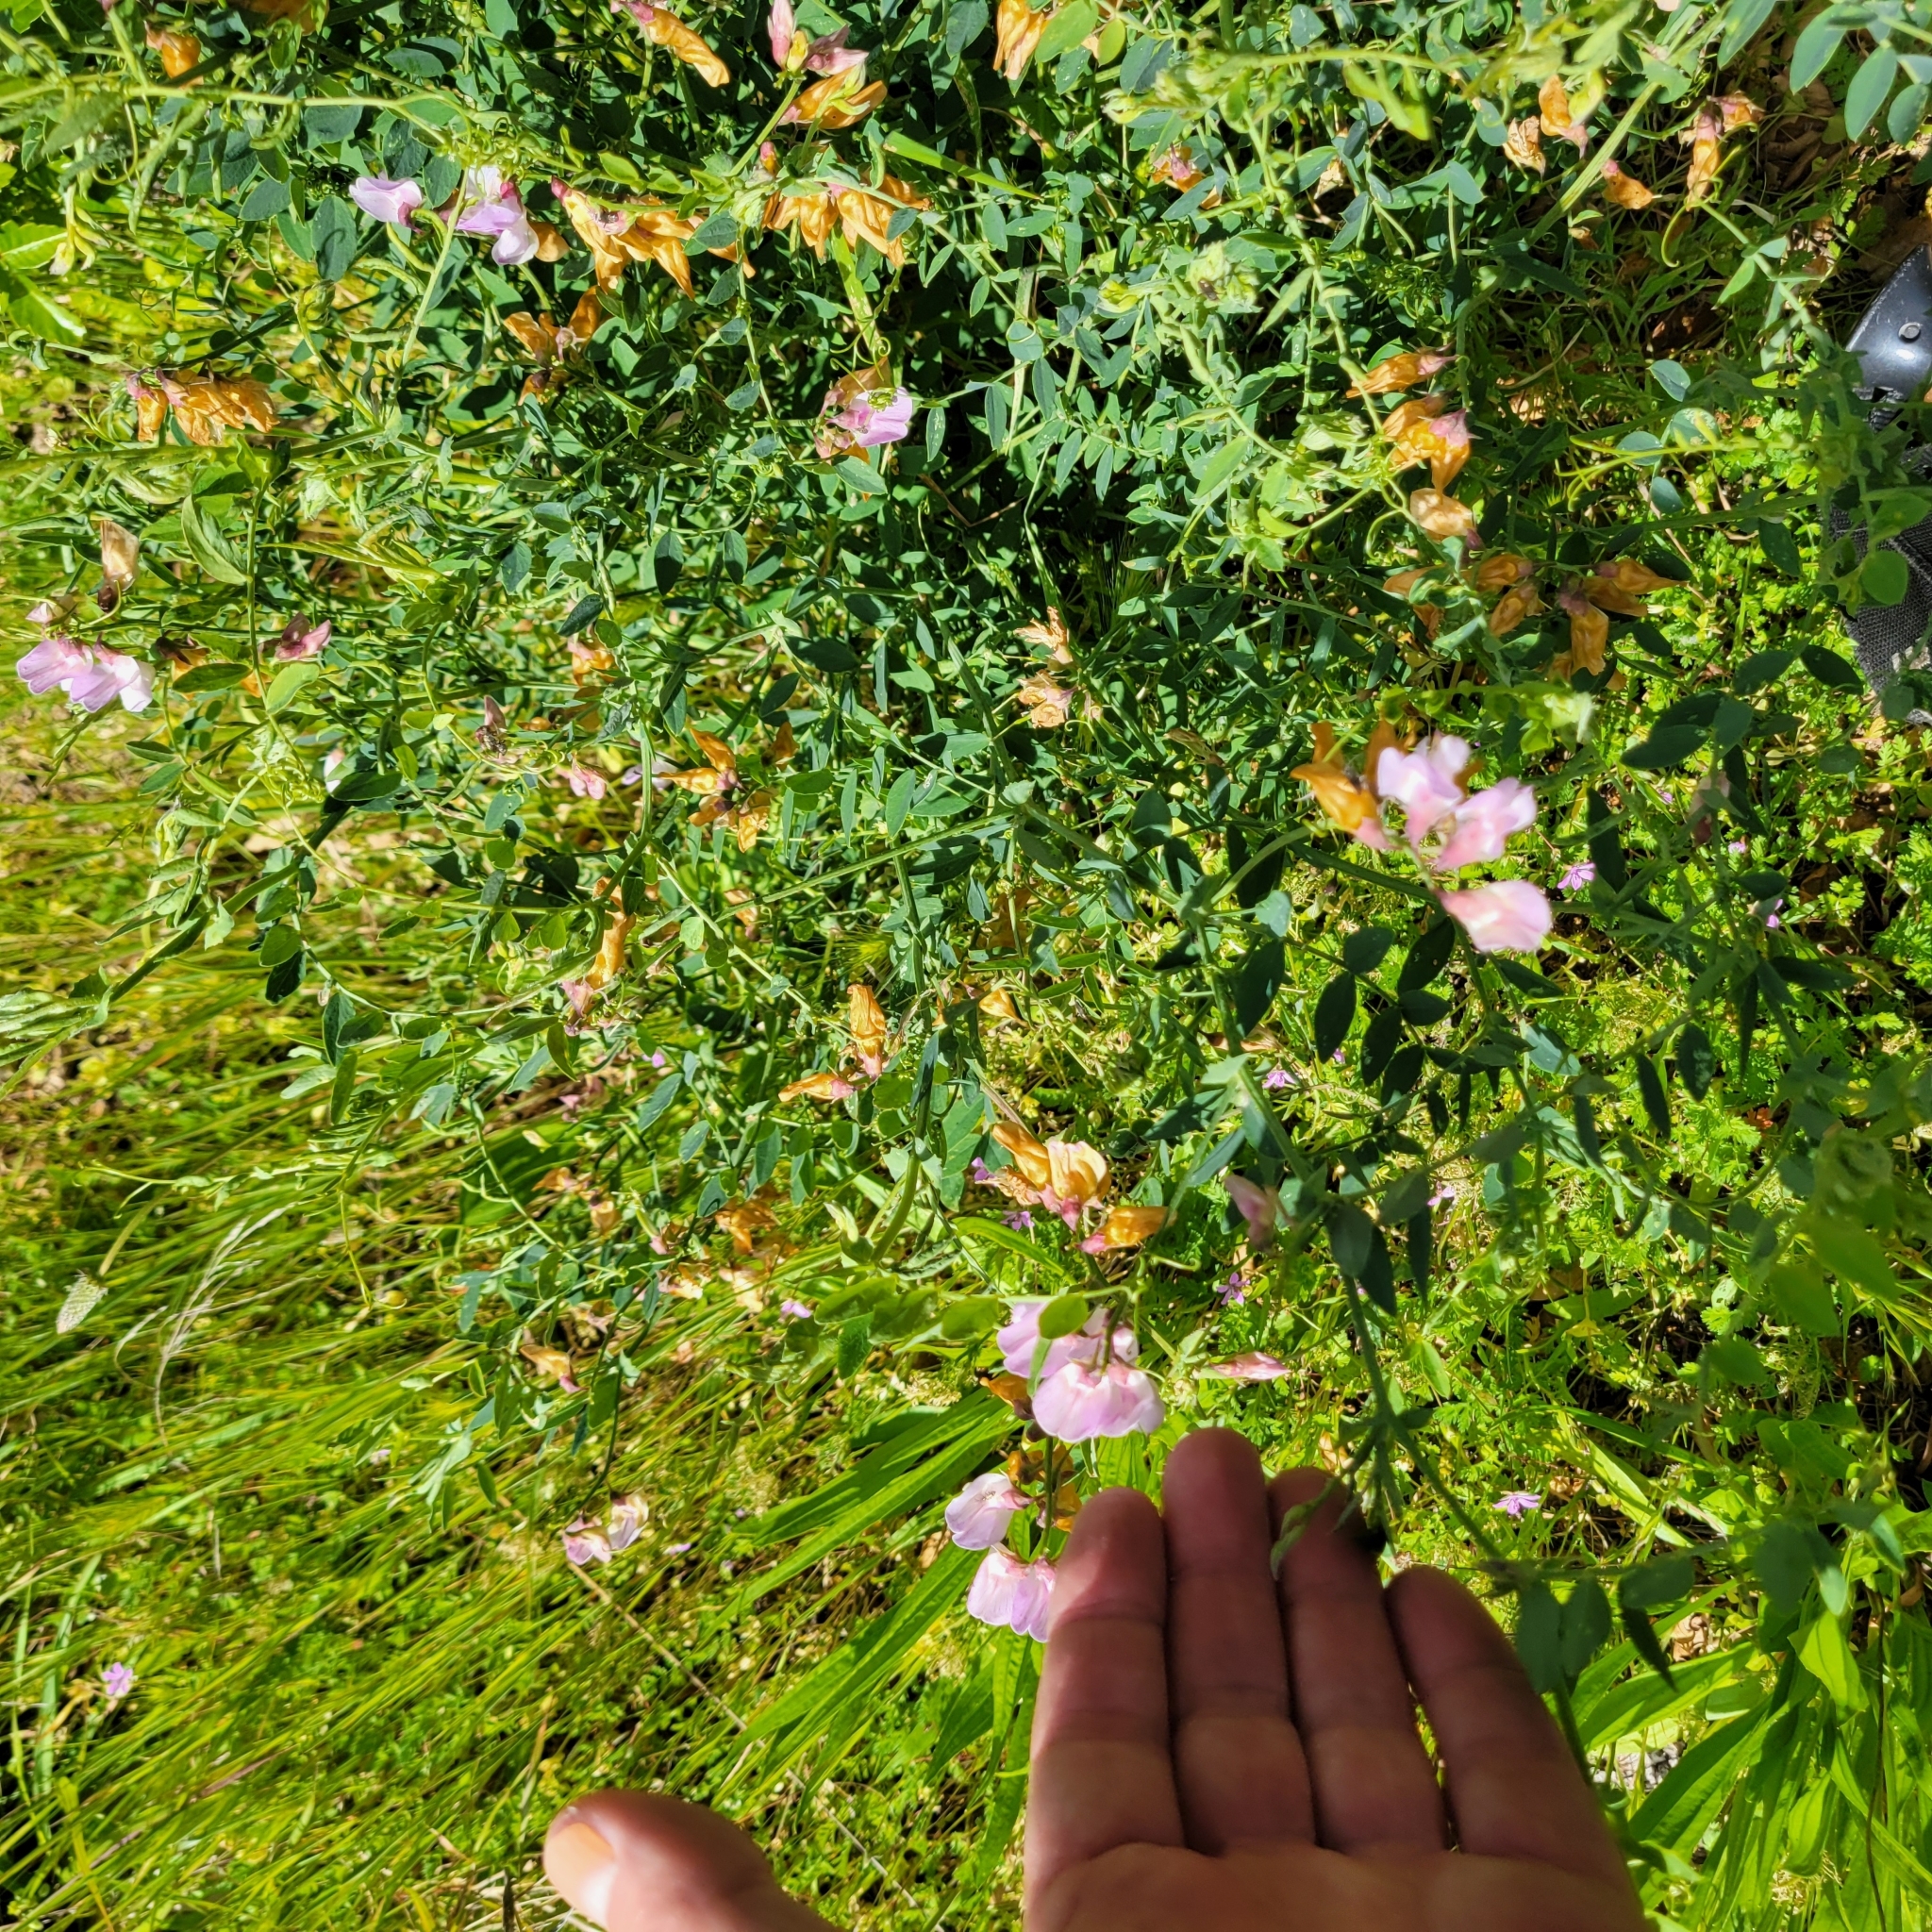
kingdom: Plantae
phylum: Tracheophyta
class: Magnoliopsida
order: Fabales
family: Fabaceae
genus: Lathyrus
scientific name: Lathyrus vestitus
